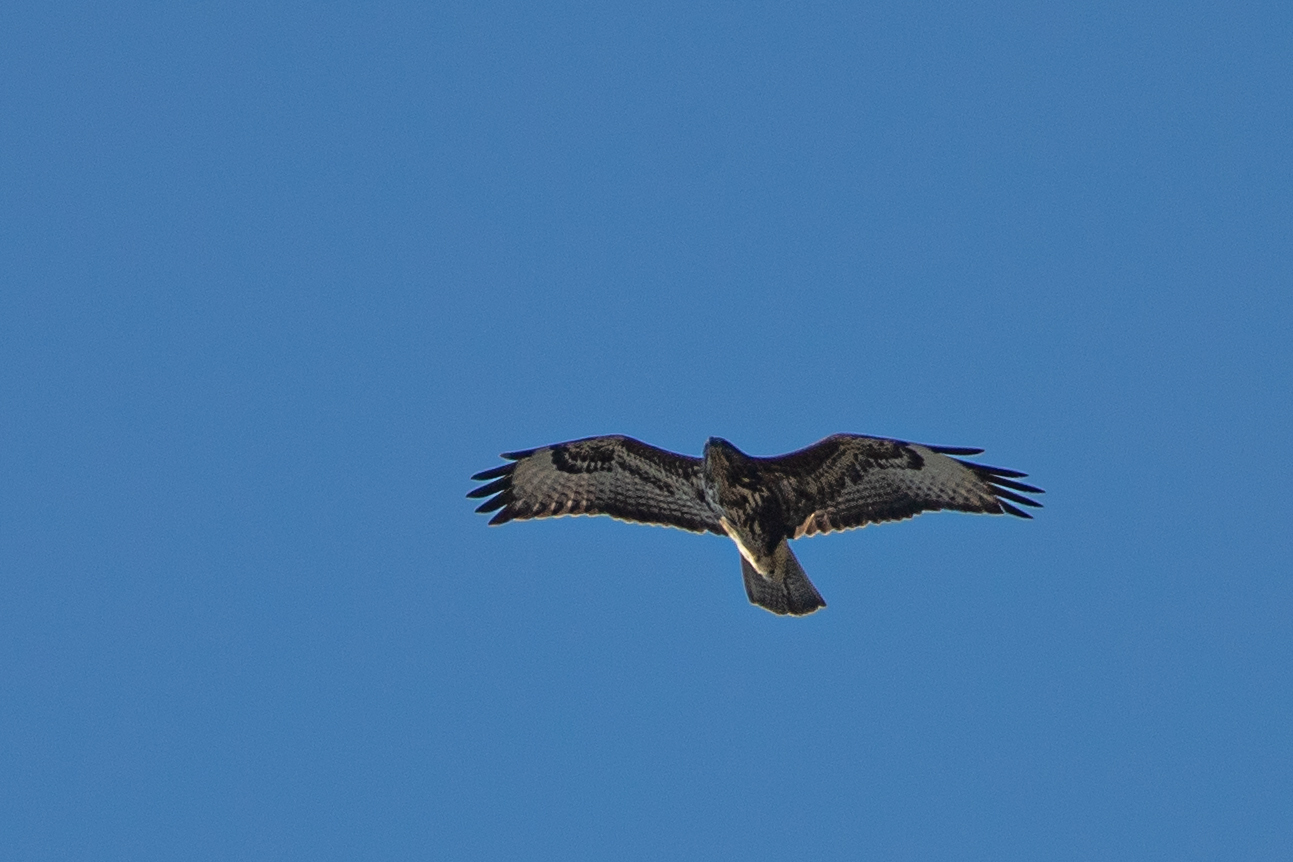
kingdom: Animalia
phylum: Chordata
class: Aves
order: Accipitriformes
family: Accipitridae
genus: Buteo
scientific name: Buteo buteo
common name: Common buzzard
